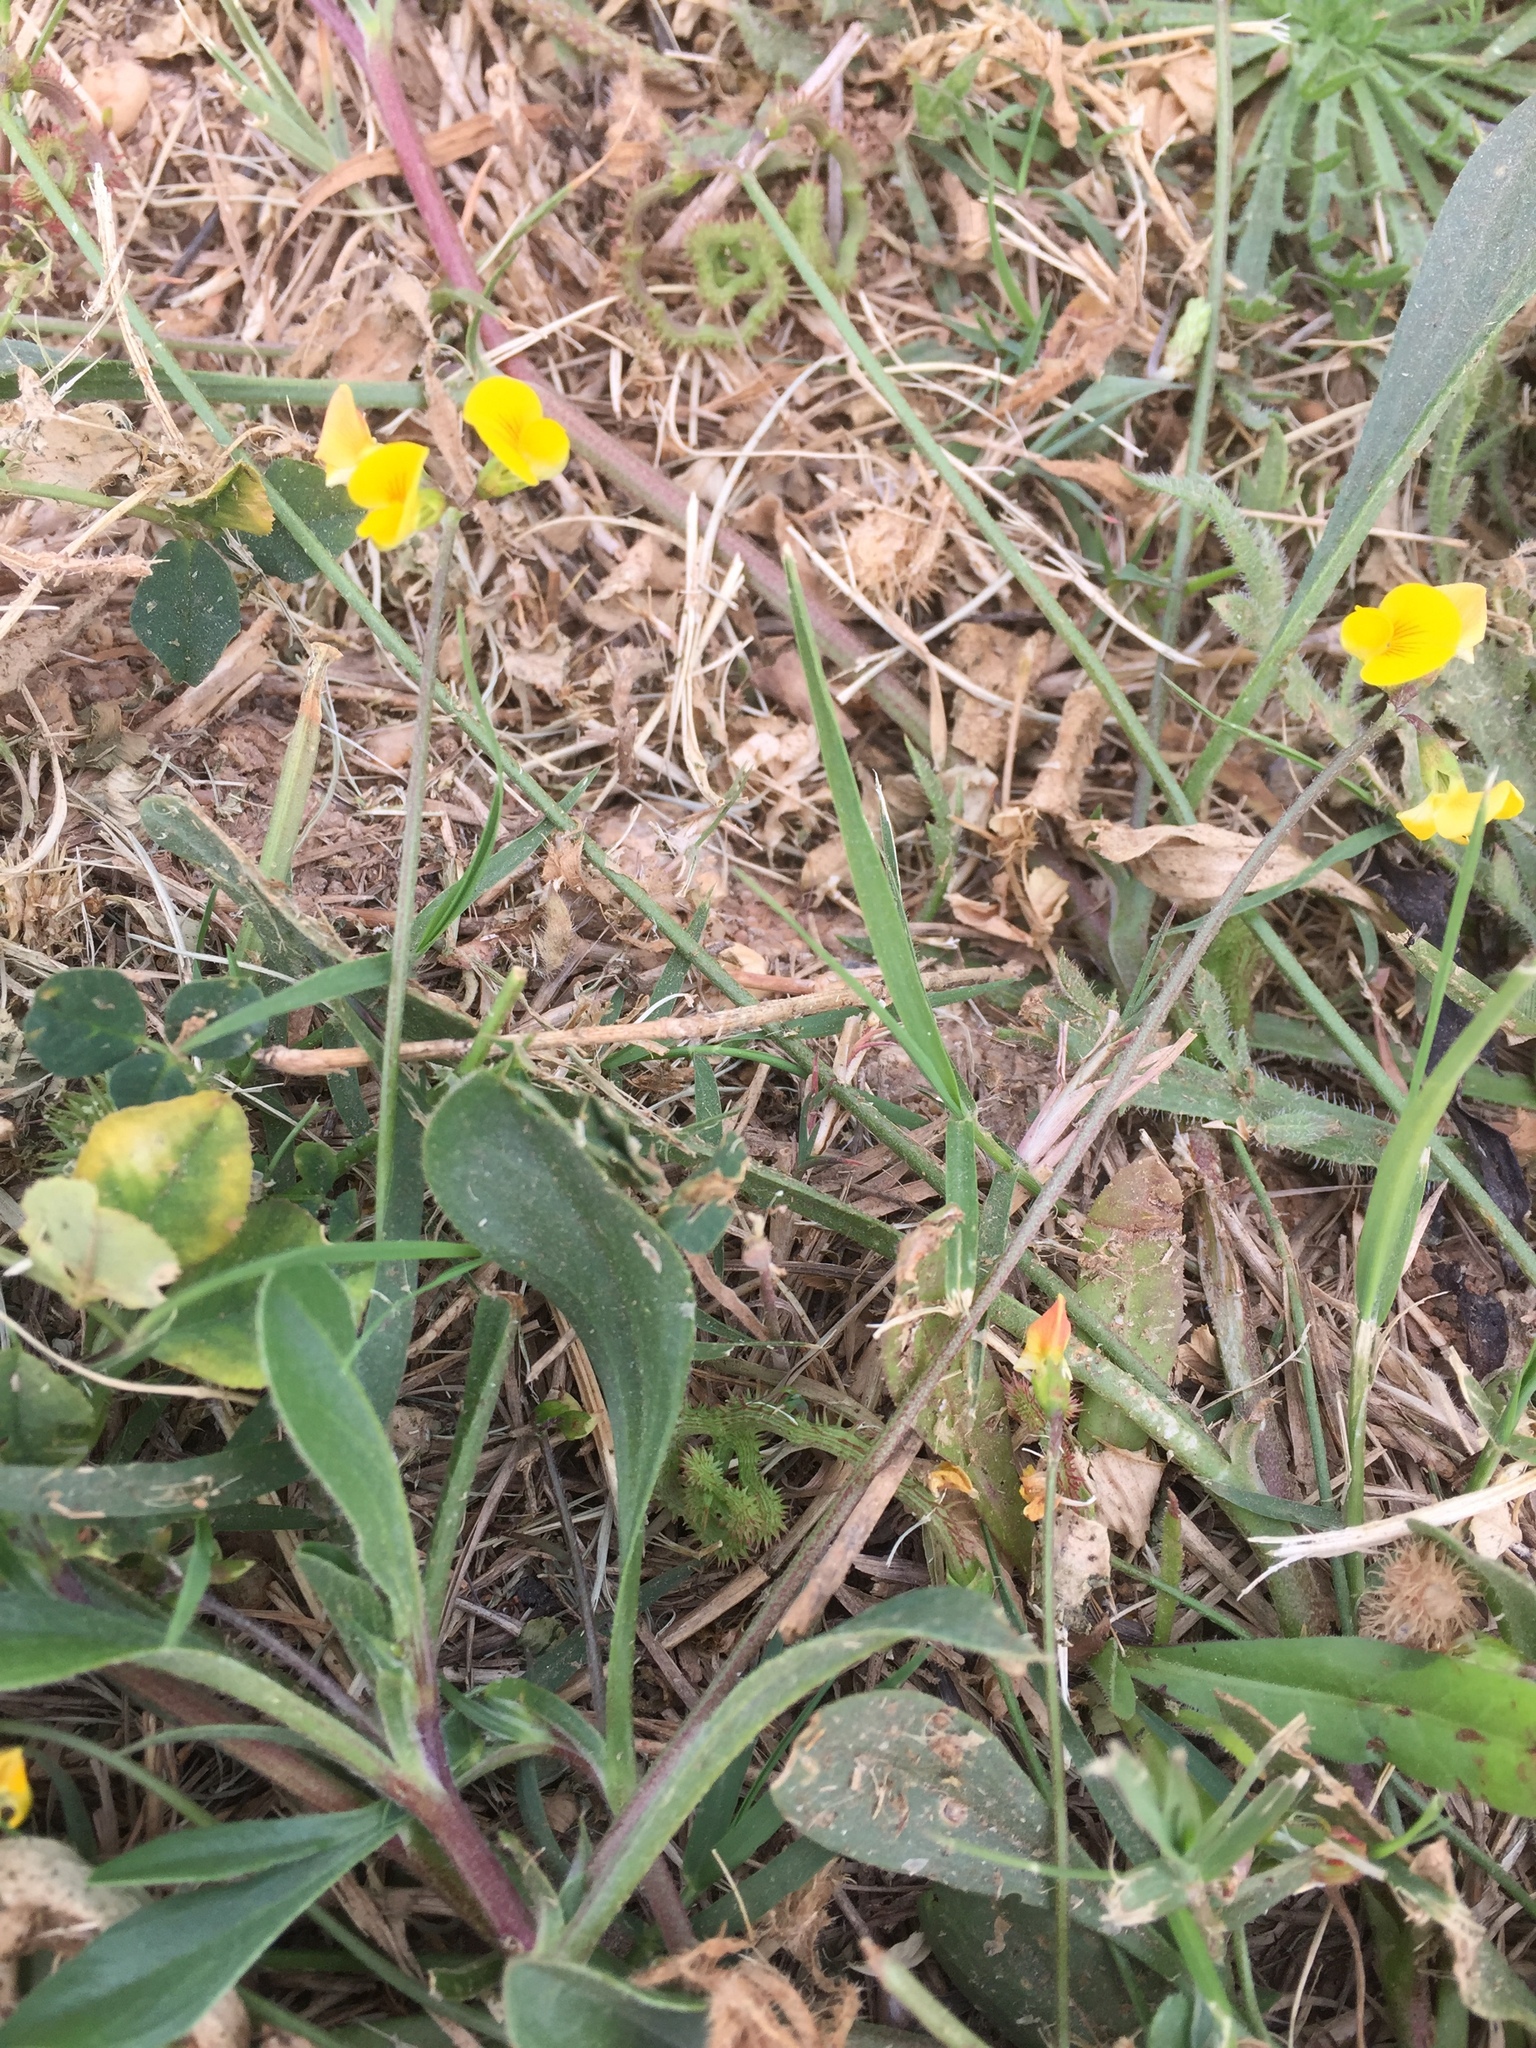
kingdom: Plantae
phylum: Tracheophyta
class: Magnoliopsida
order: Fabales
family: Fabaceae
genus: Scorpiurus
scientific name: Scorpiurus muricatus
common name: Caterpillar-plant
